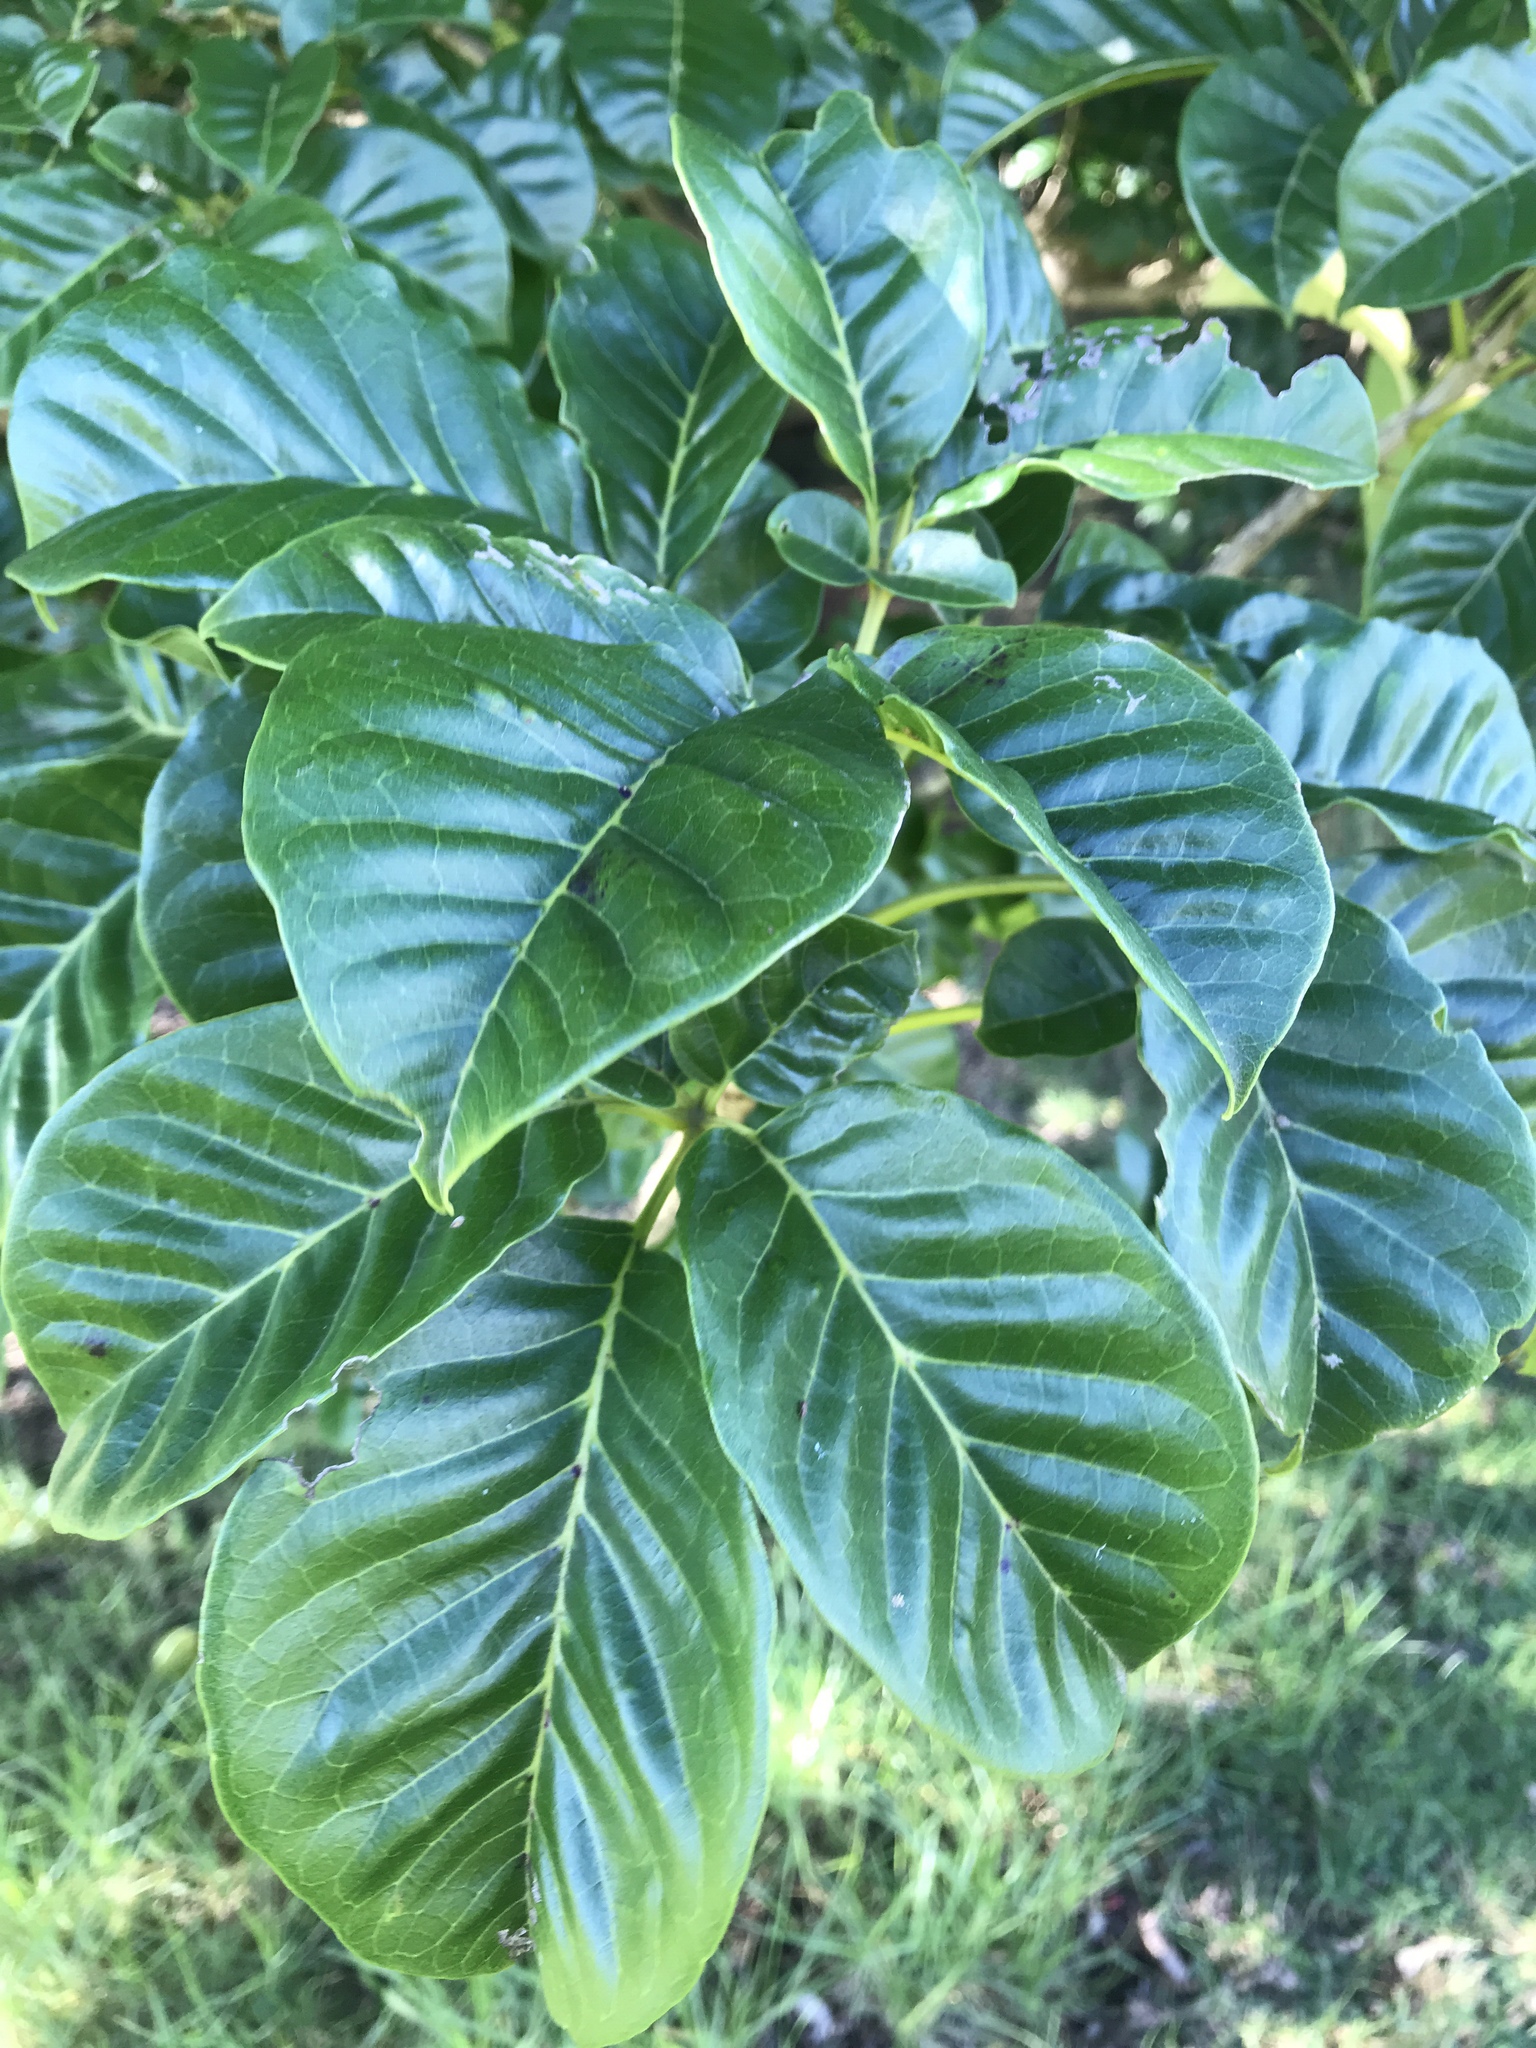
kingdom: Plantae
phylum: Tracheophyta
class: Magnoliopsida
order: Lamiales
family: Lamiaceae
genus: Vitex
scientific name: Vitex lucens
